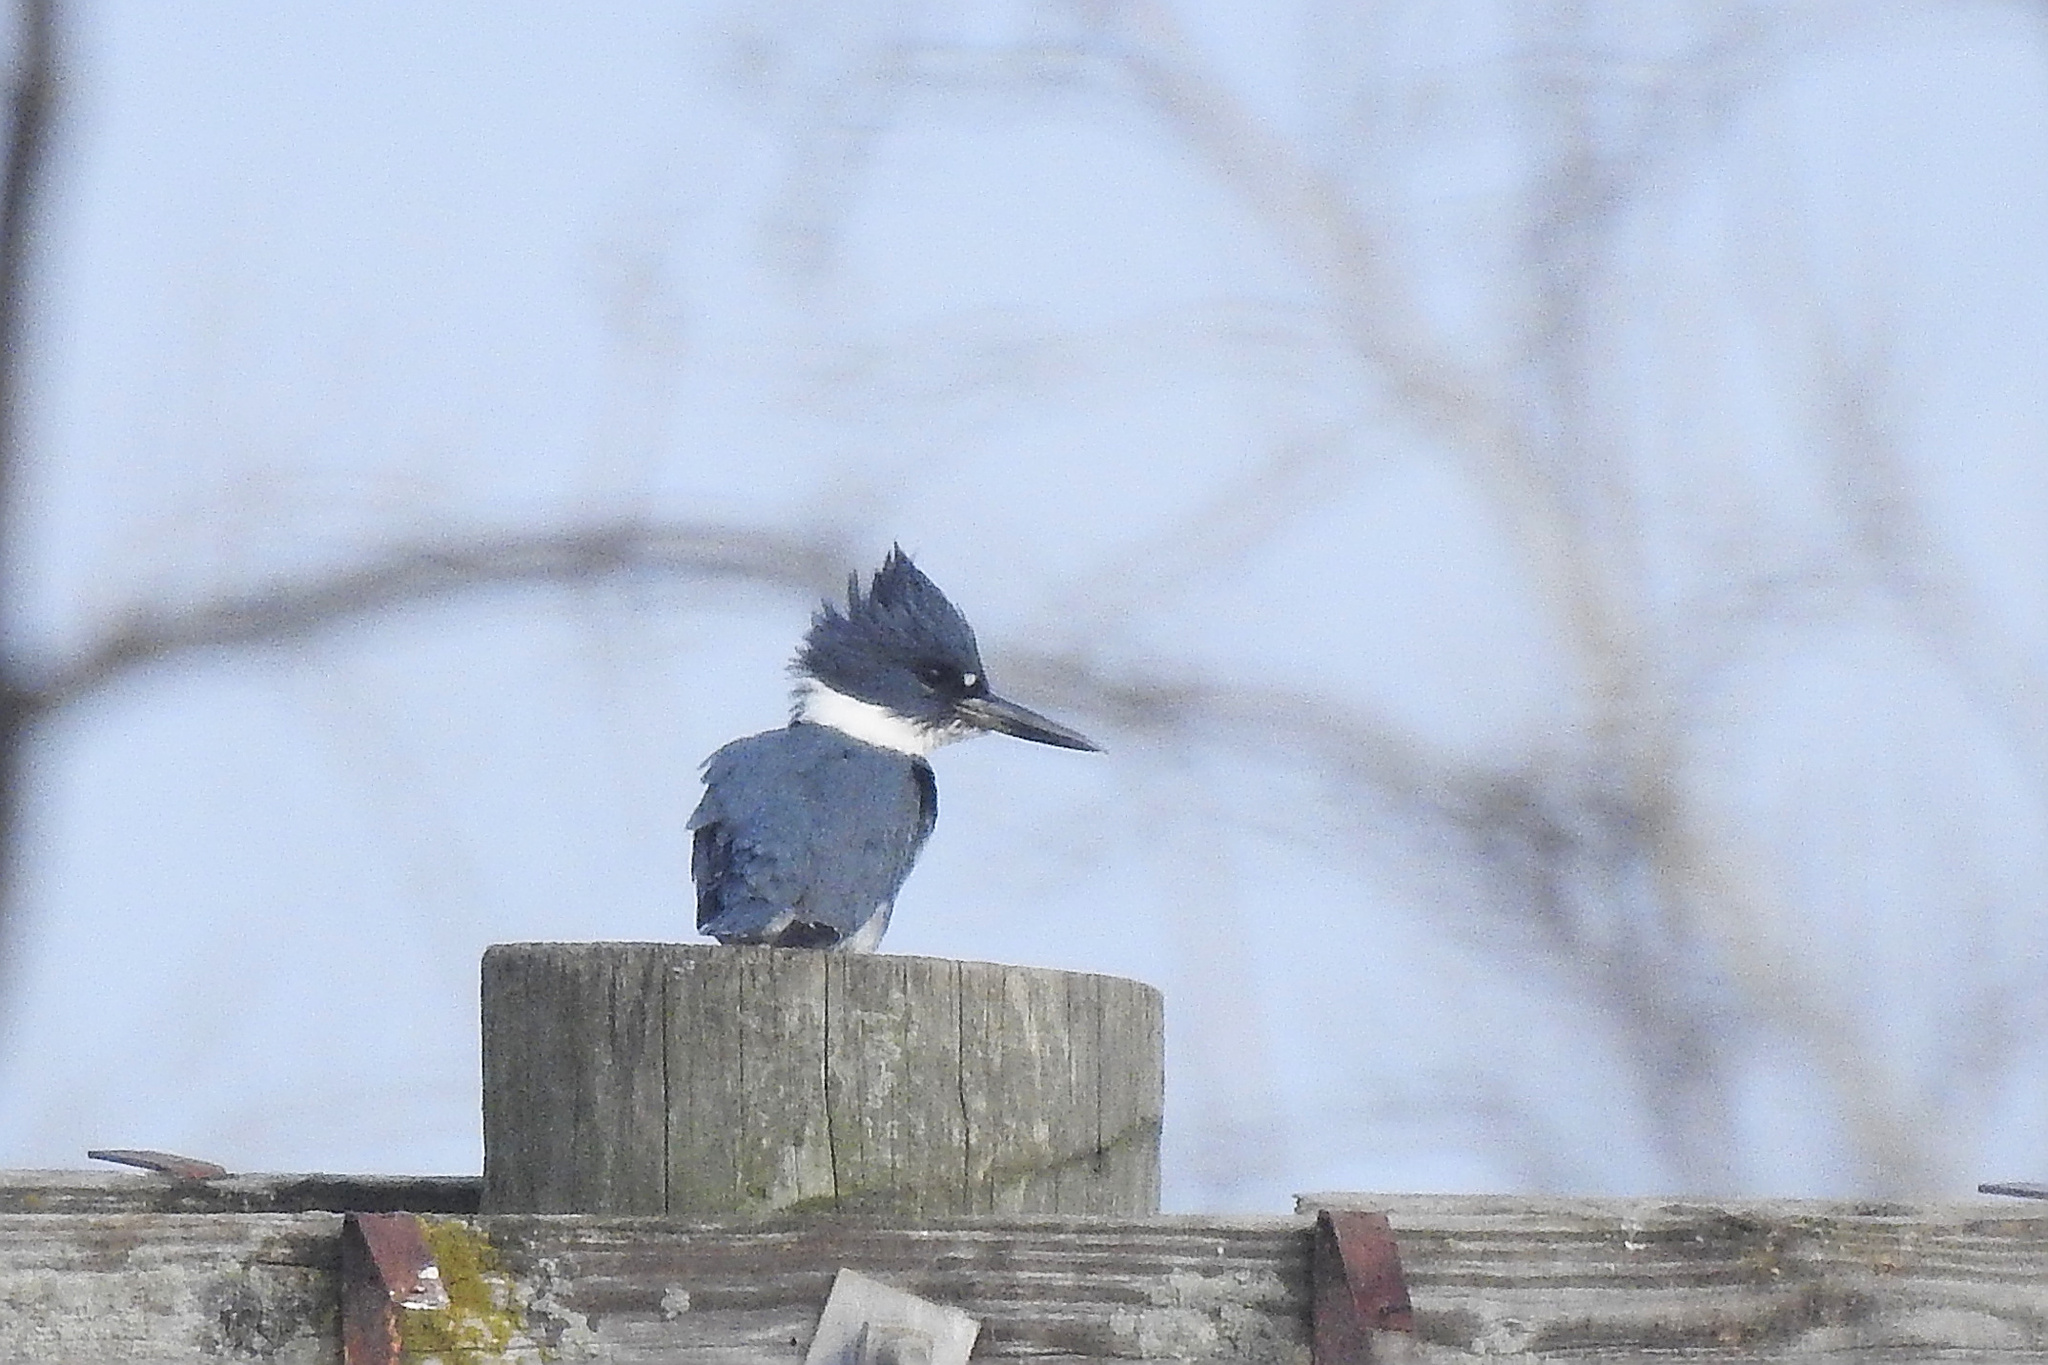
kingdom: Animalia
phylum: Chordata
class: Aves
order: Coraciiformes
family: Alcedinidae
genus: Megaceryle
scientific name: Megaceryle alcyon
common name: Belted kingfisher
